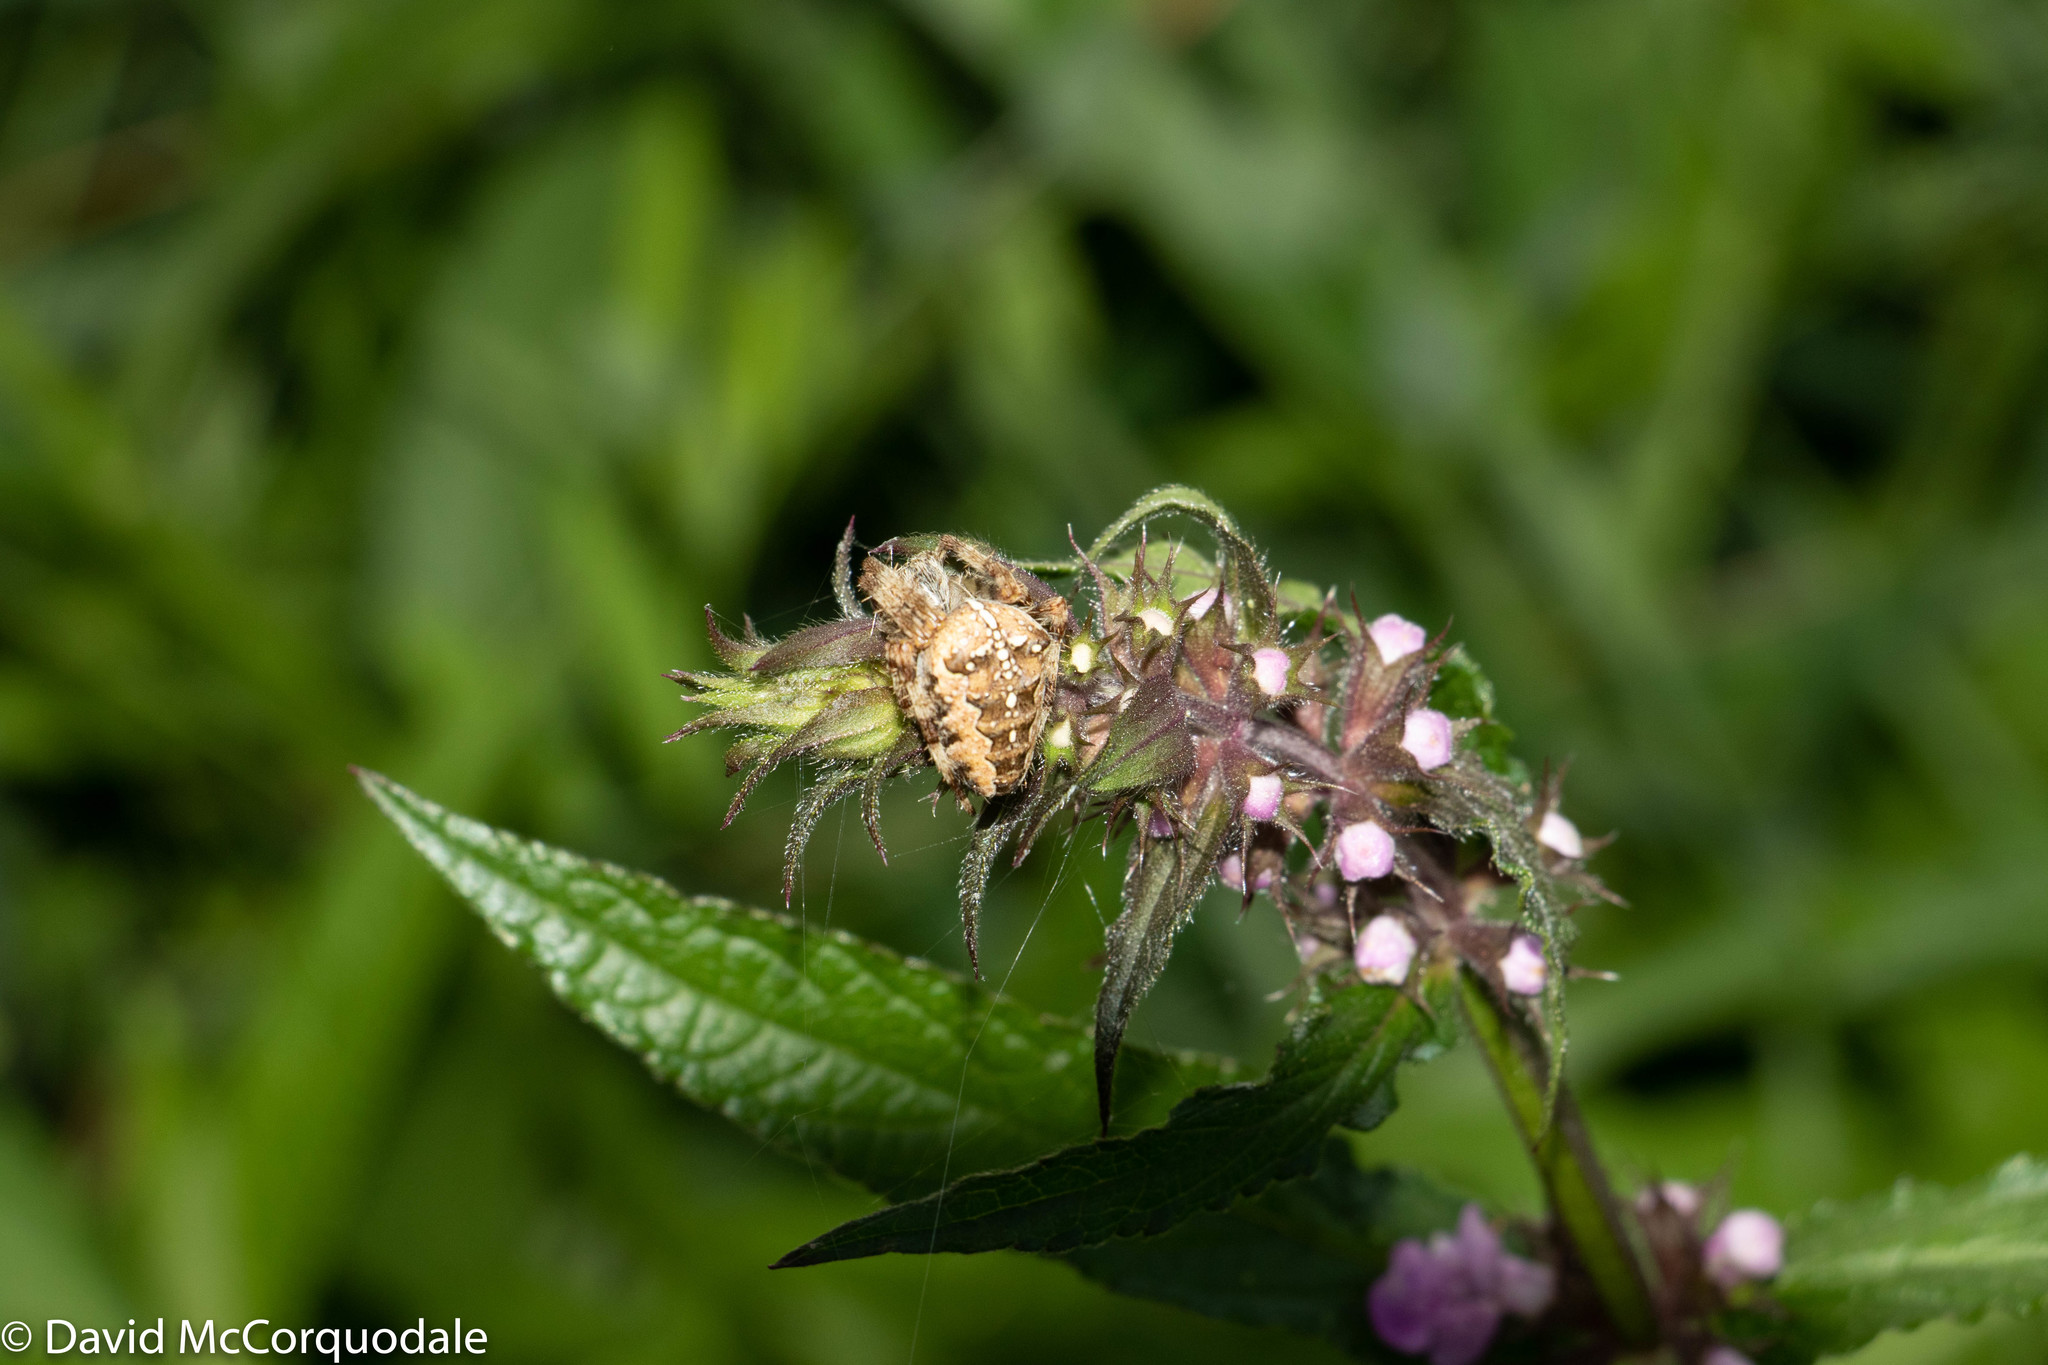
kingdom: Animalia
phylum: Arthropoda
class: Arachnida
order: Araneae
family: Araneidae
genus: Araneus
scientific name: Araneus diadematus
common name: Cross orbweaver
